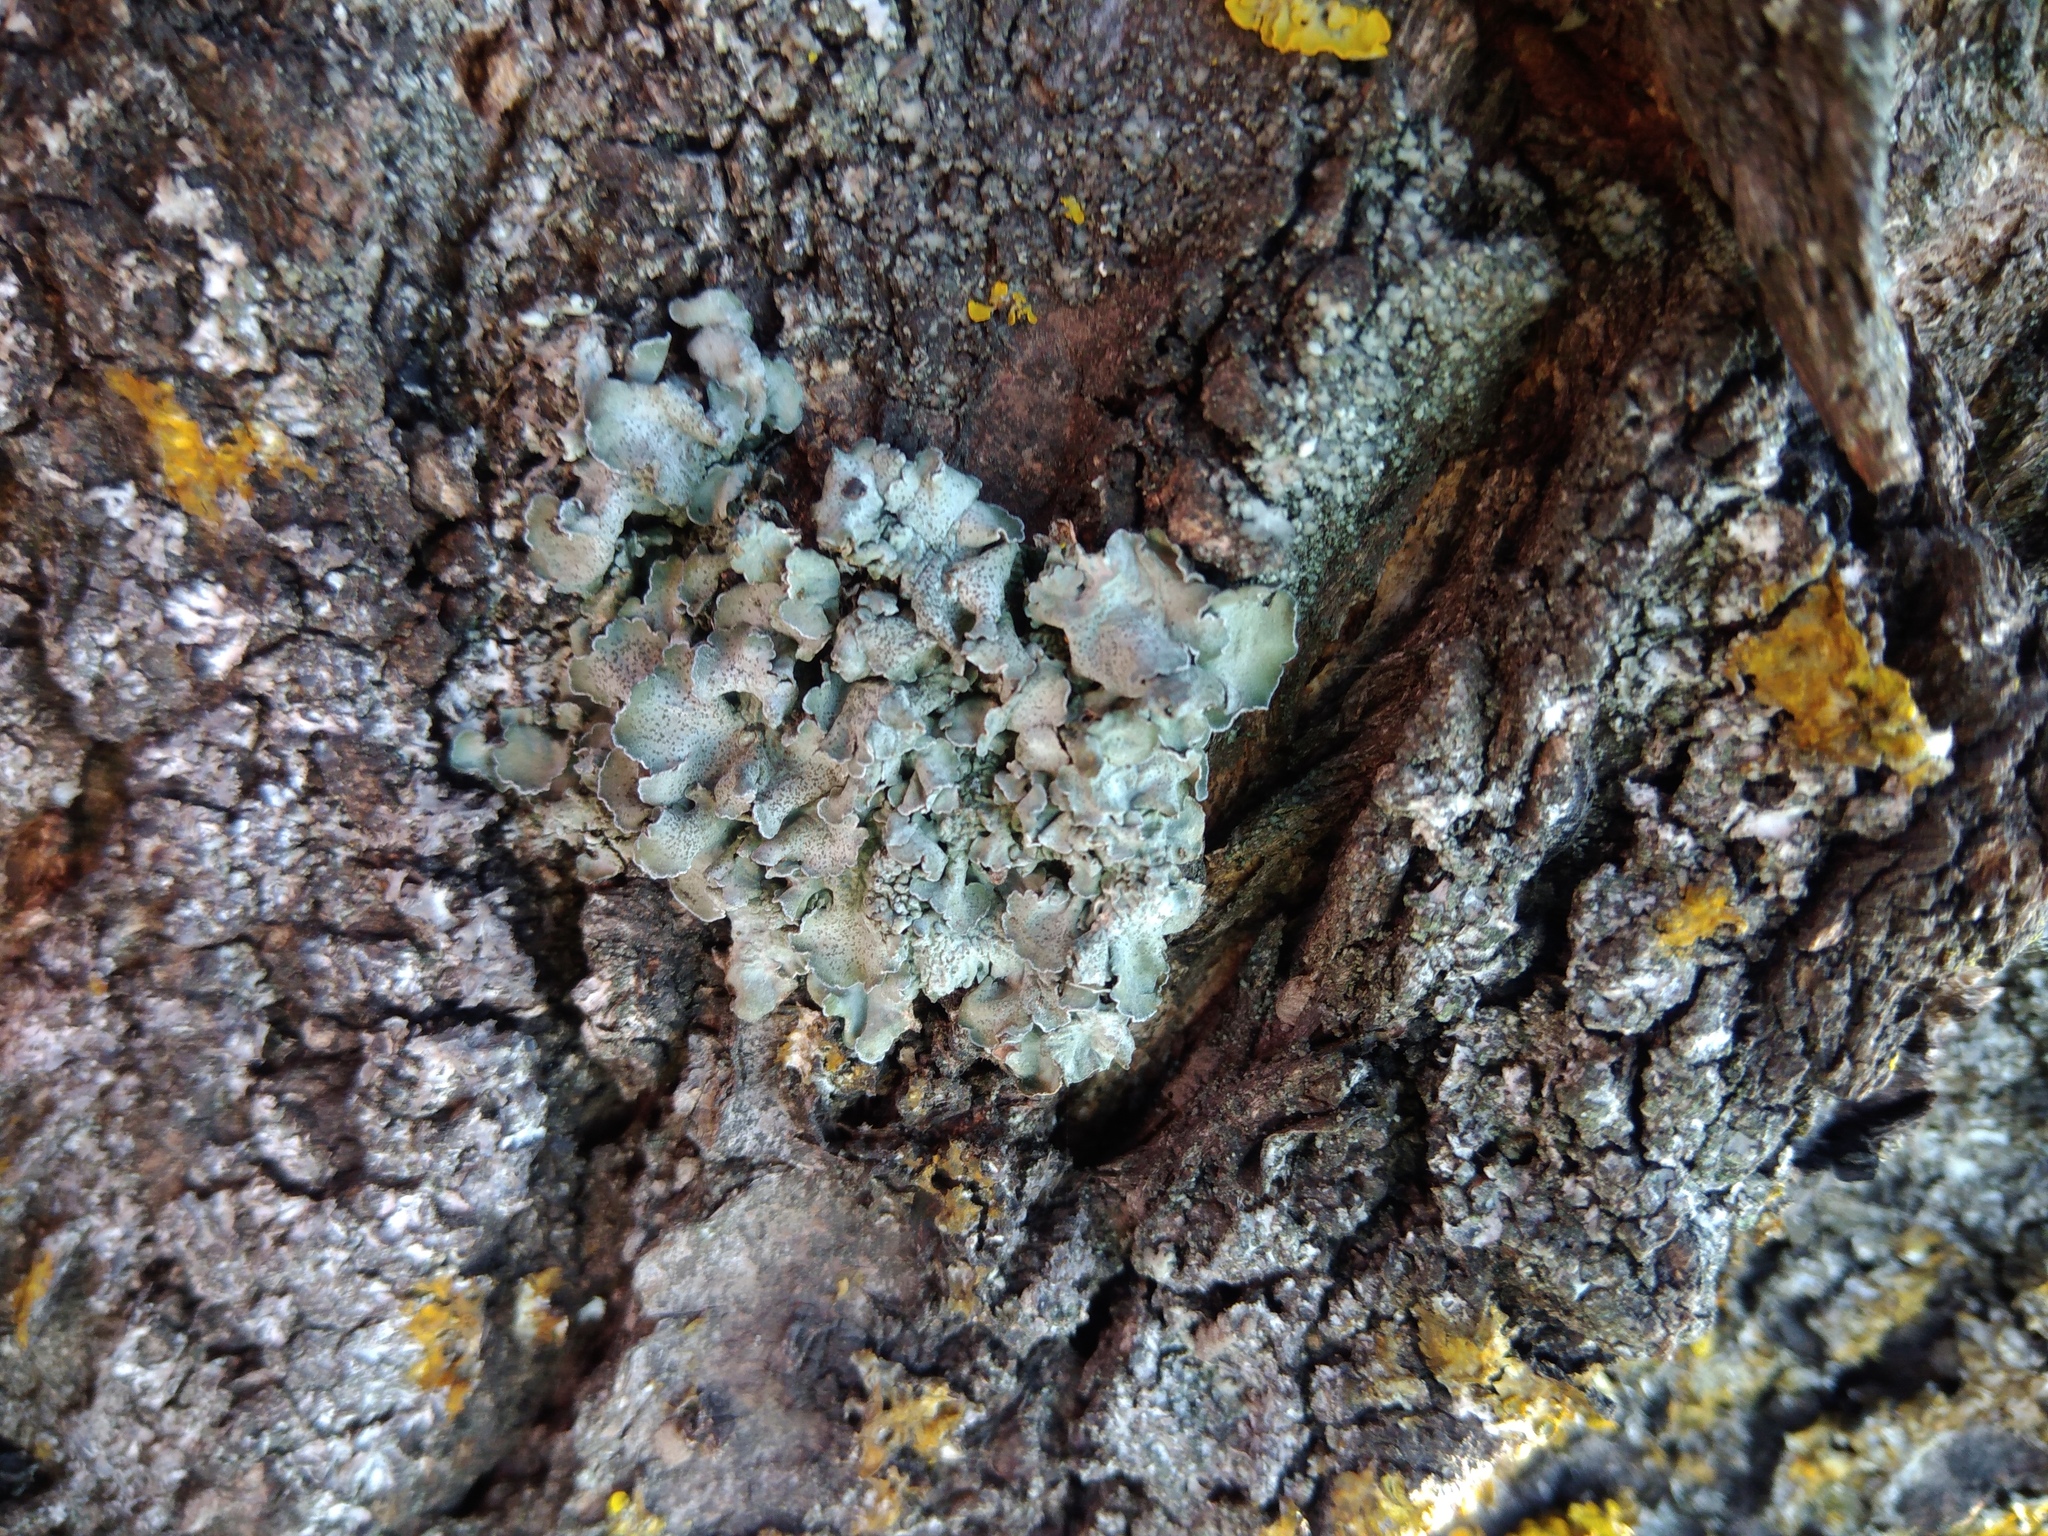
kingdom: Fungi
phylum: Ascomycota
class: Lecanoromycetes
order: Lecanorales
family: Parmeliaceae
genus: Pleurosticta
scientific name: Pleurosticta acetabulum
